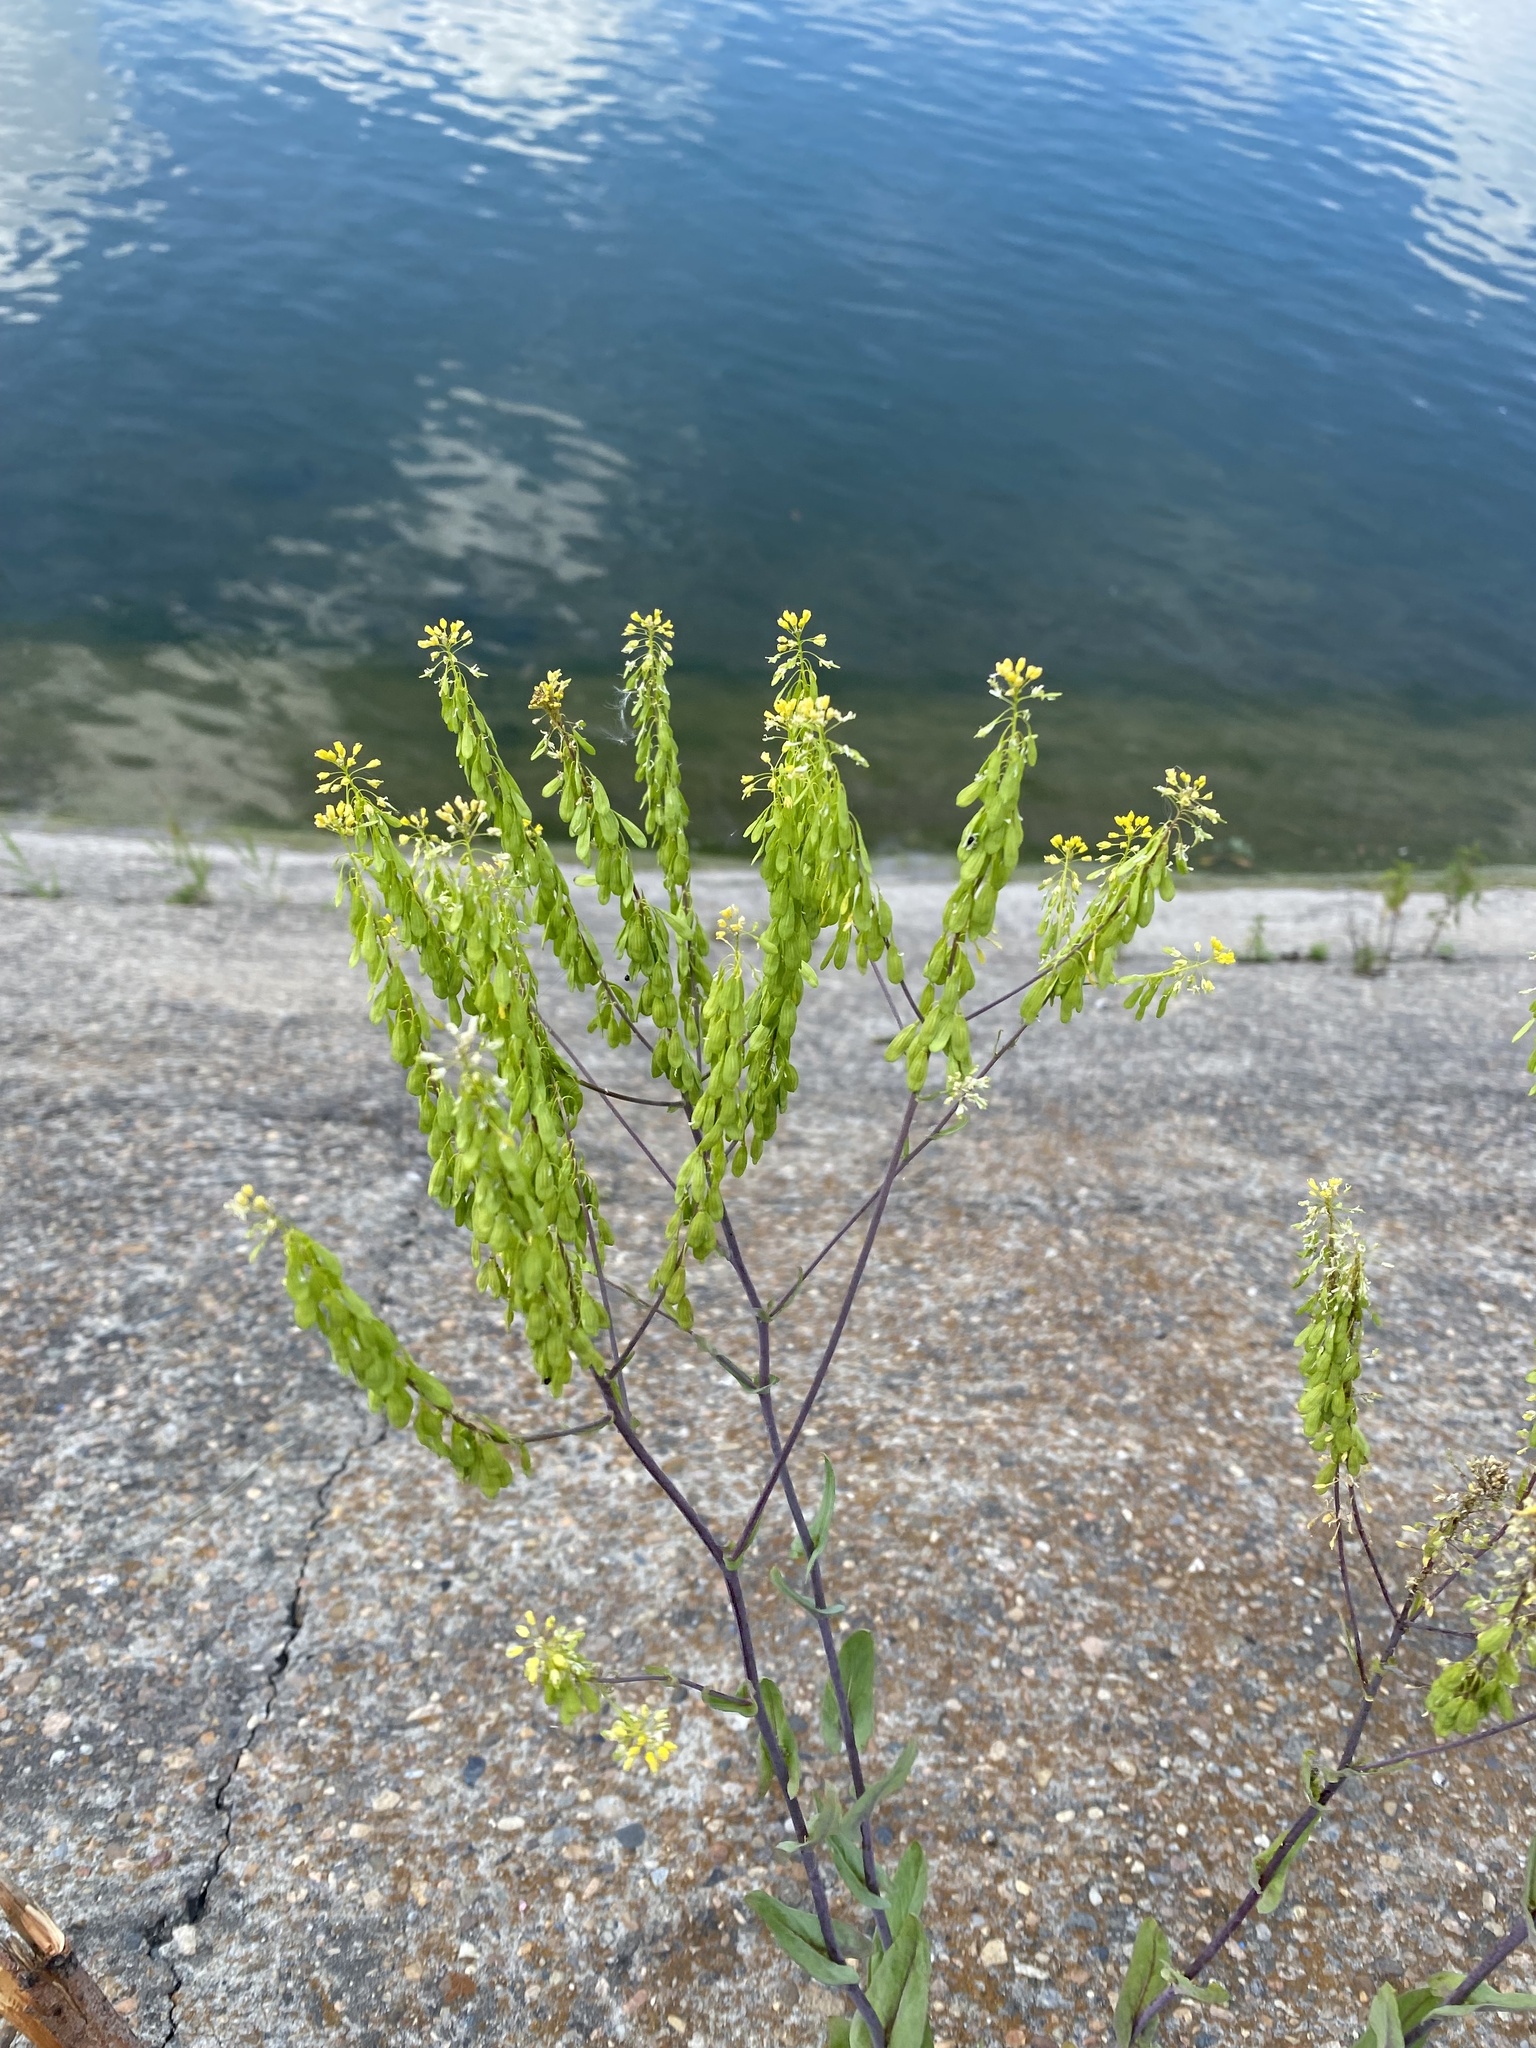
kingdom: Plantae
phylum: Tracheophyta
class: Magnoliopsida
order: Brassicales
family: Brassicaceae
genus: Isatis
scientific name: Isatis tinctoria
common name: Woad
